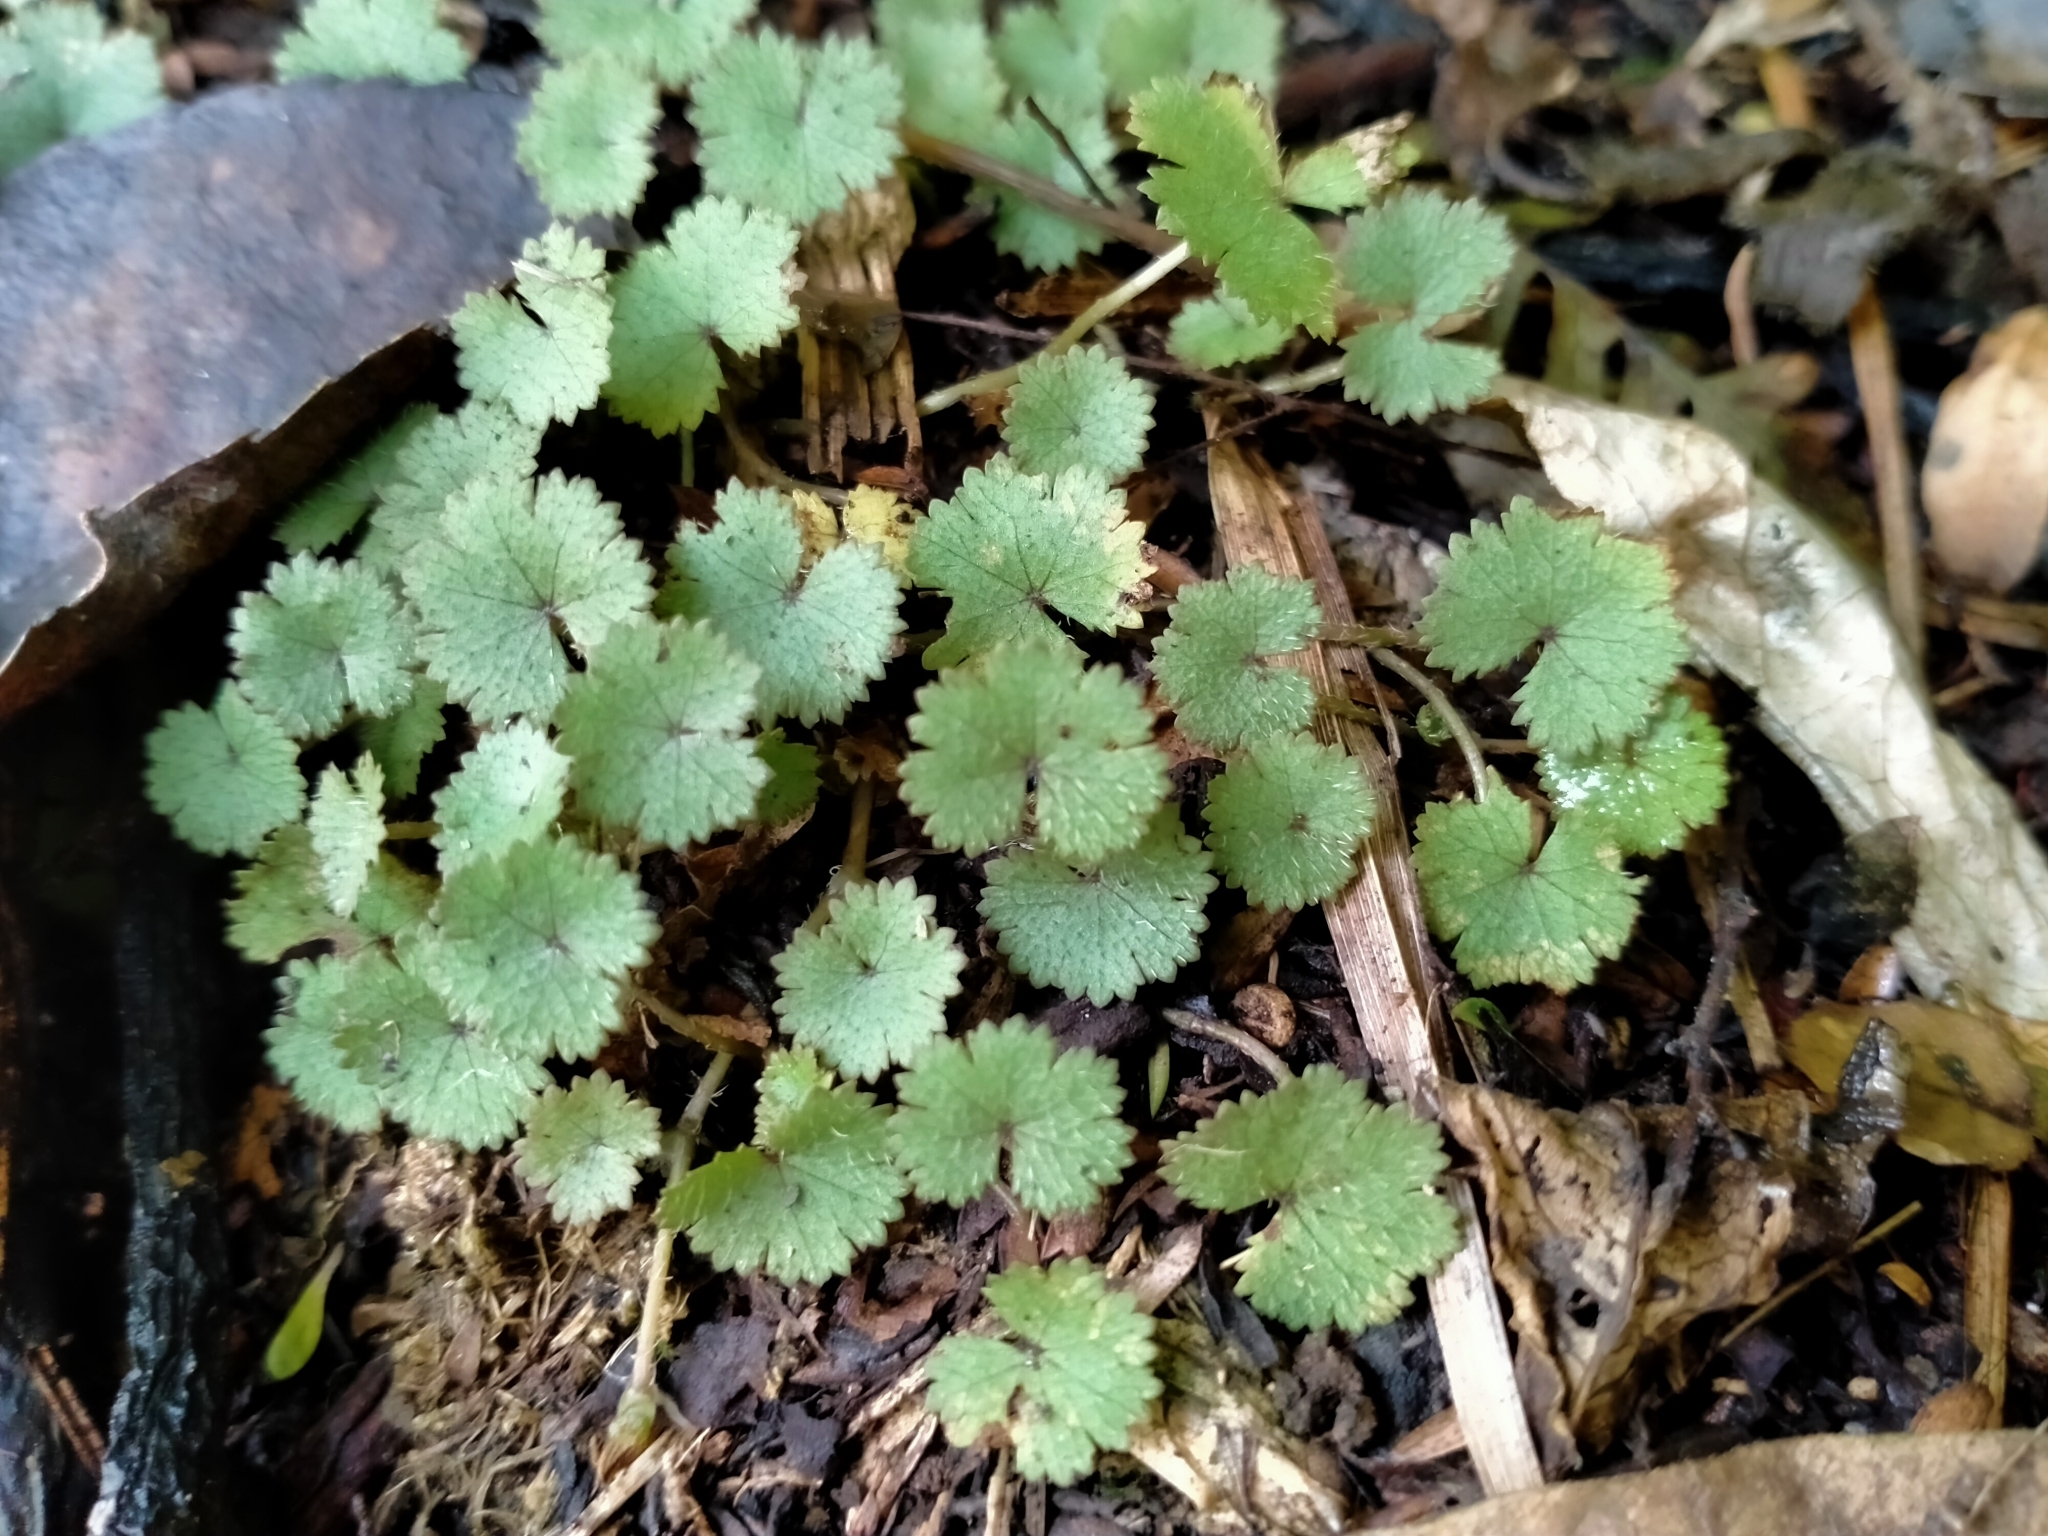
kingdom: Plantae
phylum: Tracheophyta
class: Magnoliopsida
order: Apiales
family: Araliaceae
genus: Hydrocotyle
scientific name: Hydrocotyle moschata
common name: Hairy pennywort
